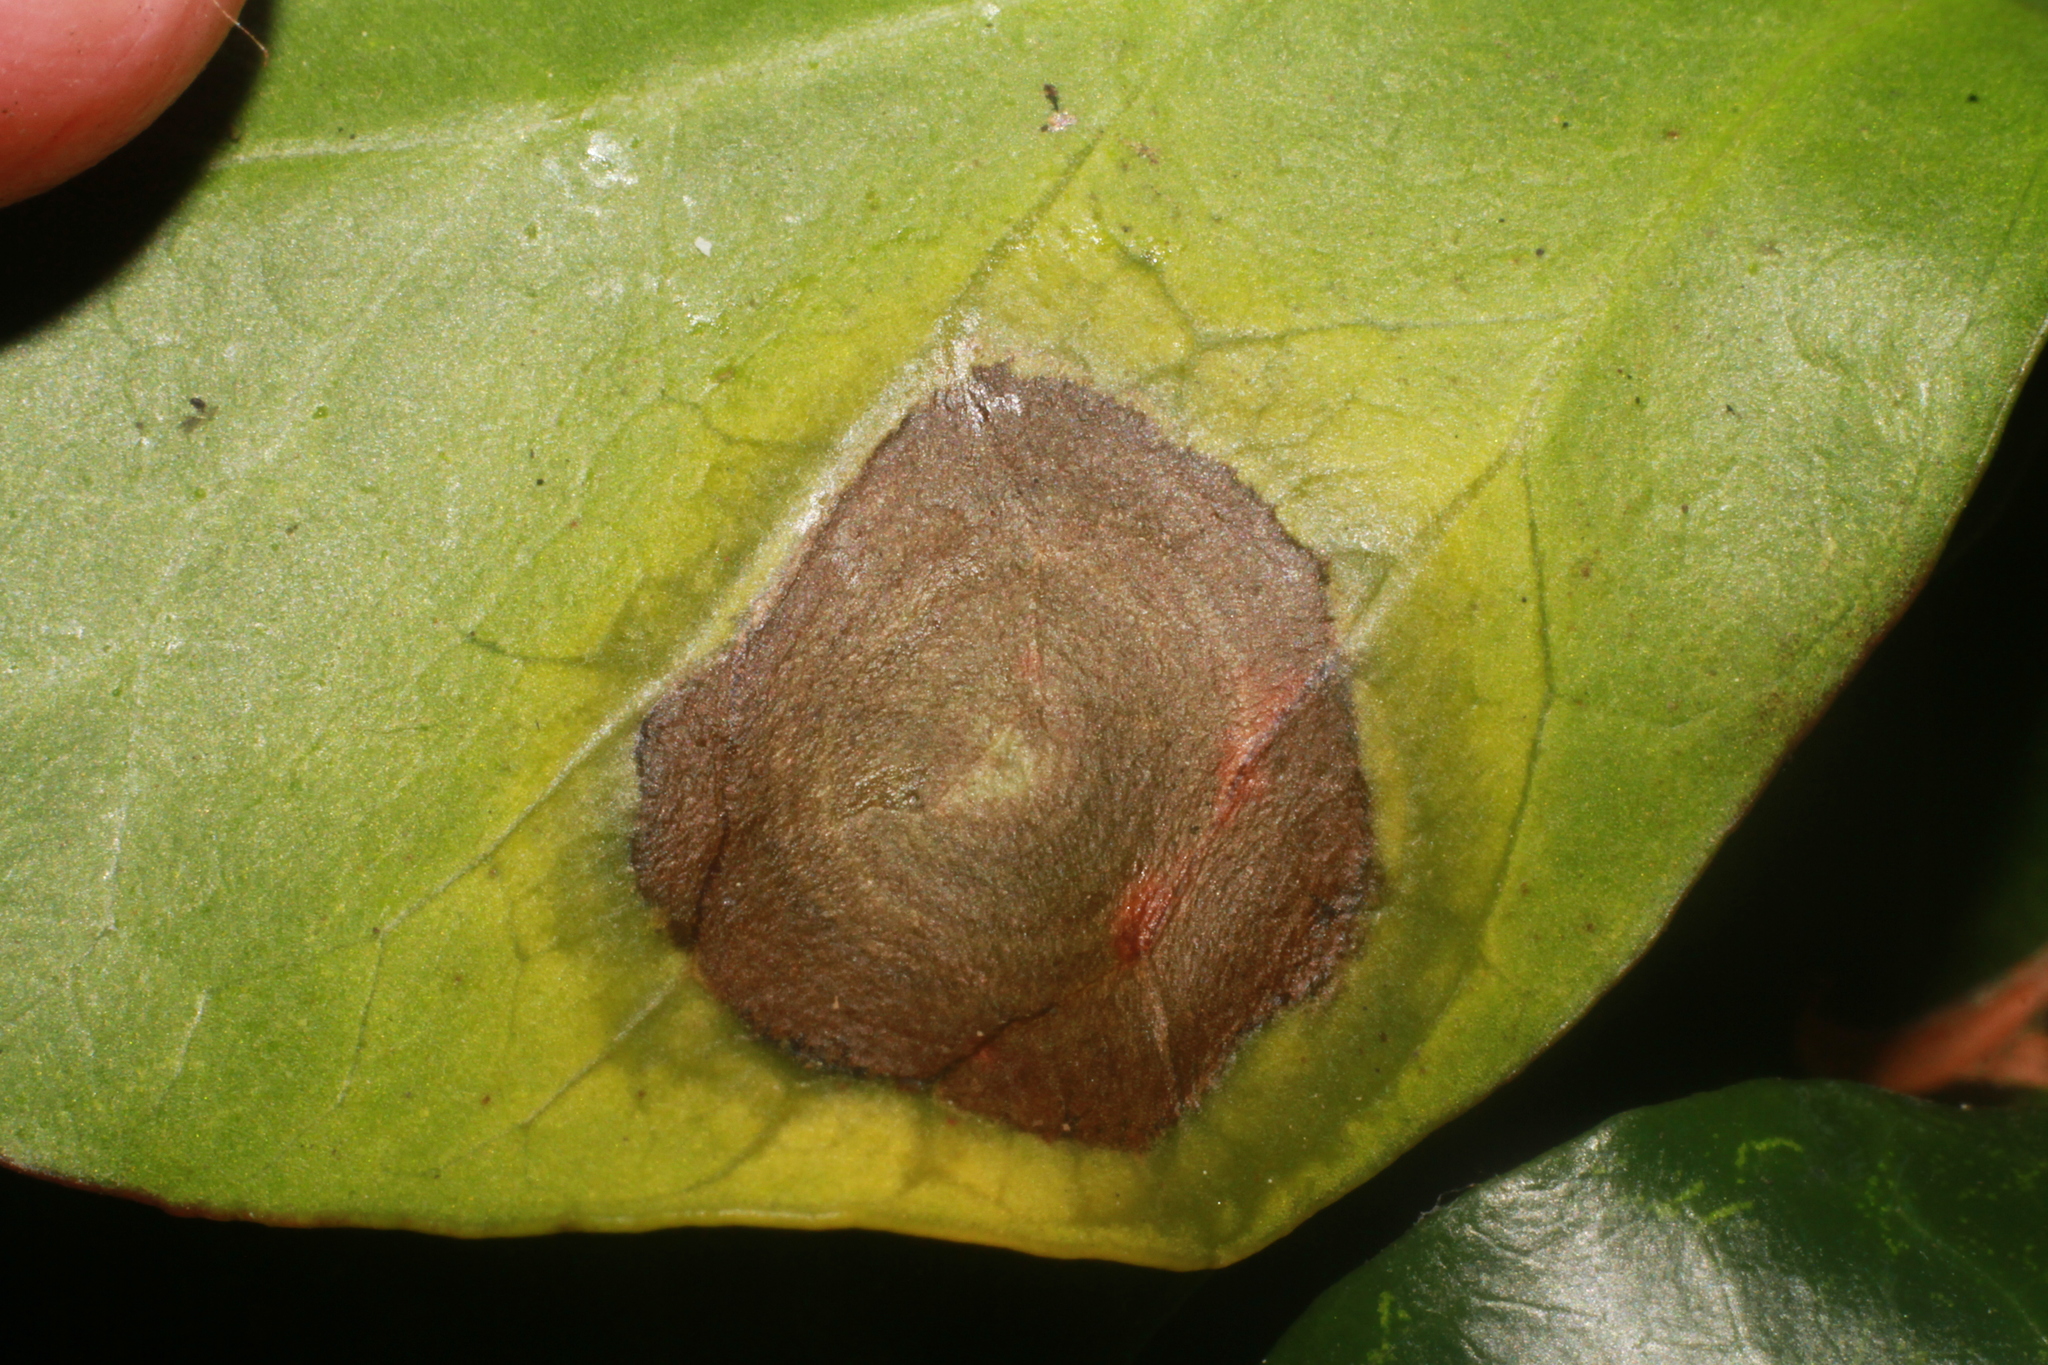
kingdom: Fungi
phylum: Ascomycota
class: Dothideomycetes
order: Pleosporales
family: Didymellaceae
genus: Boeremia
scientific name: Boeremia hedericola
